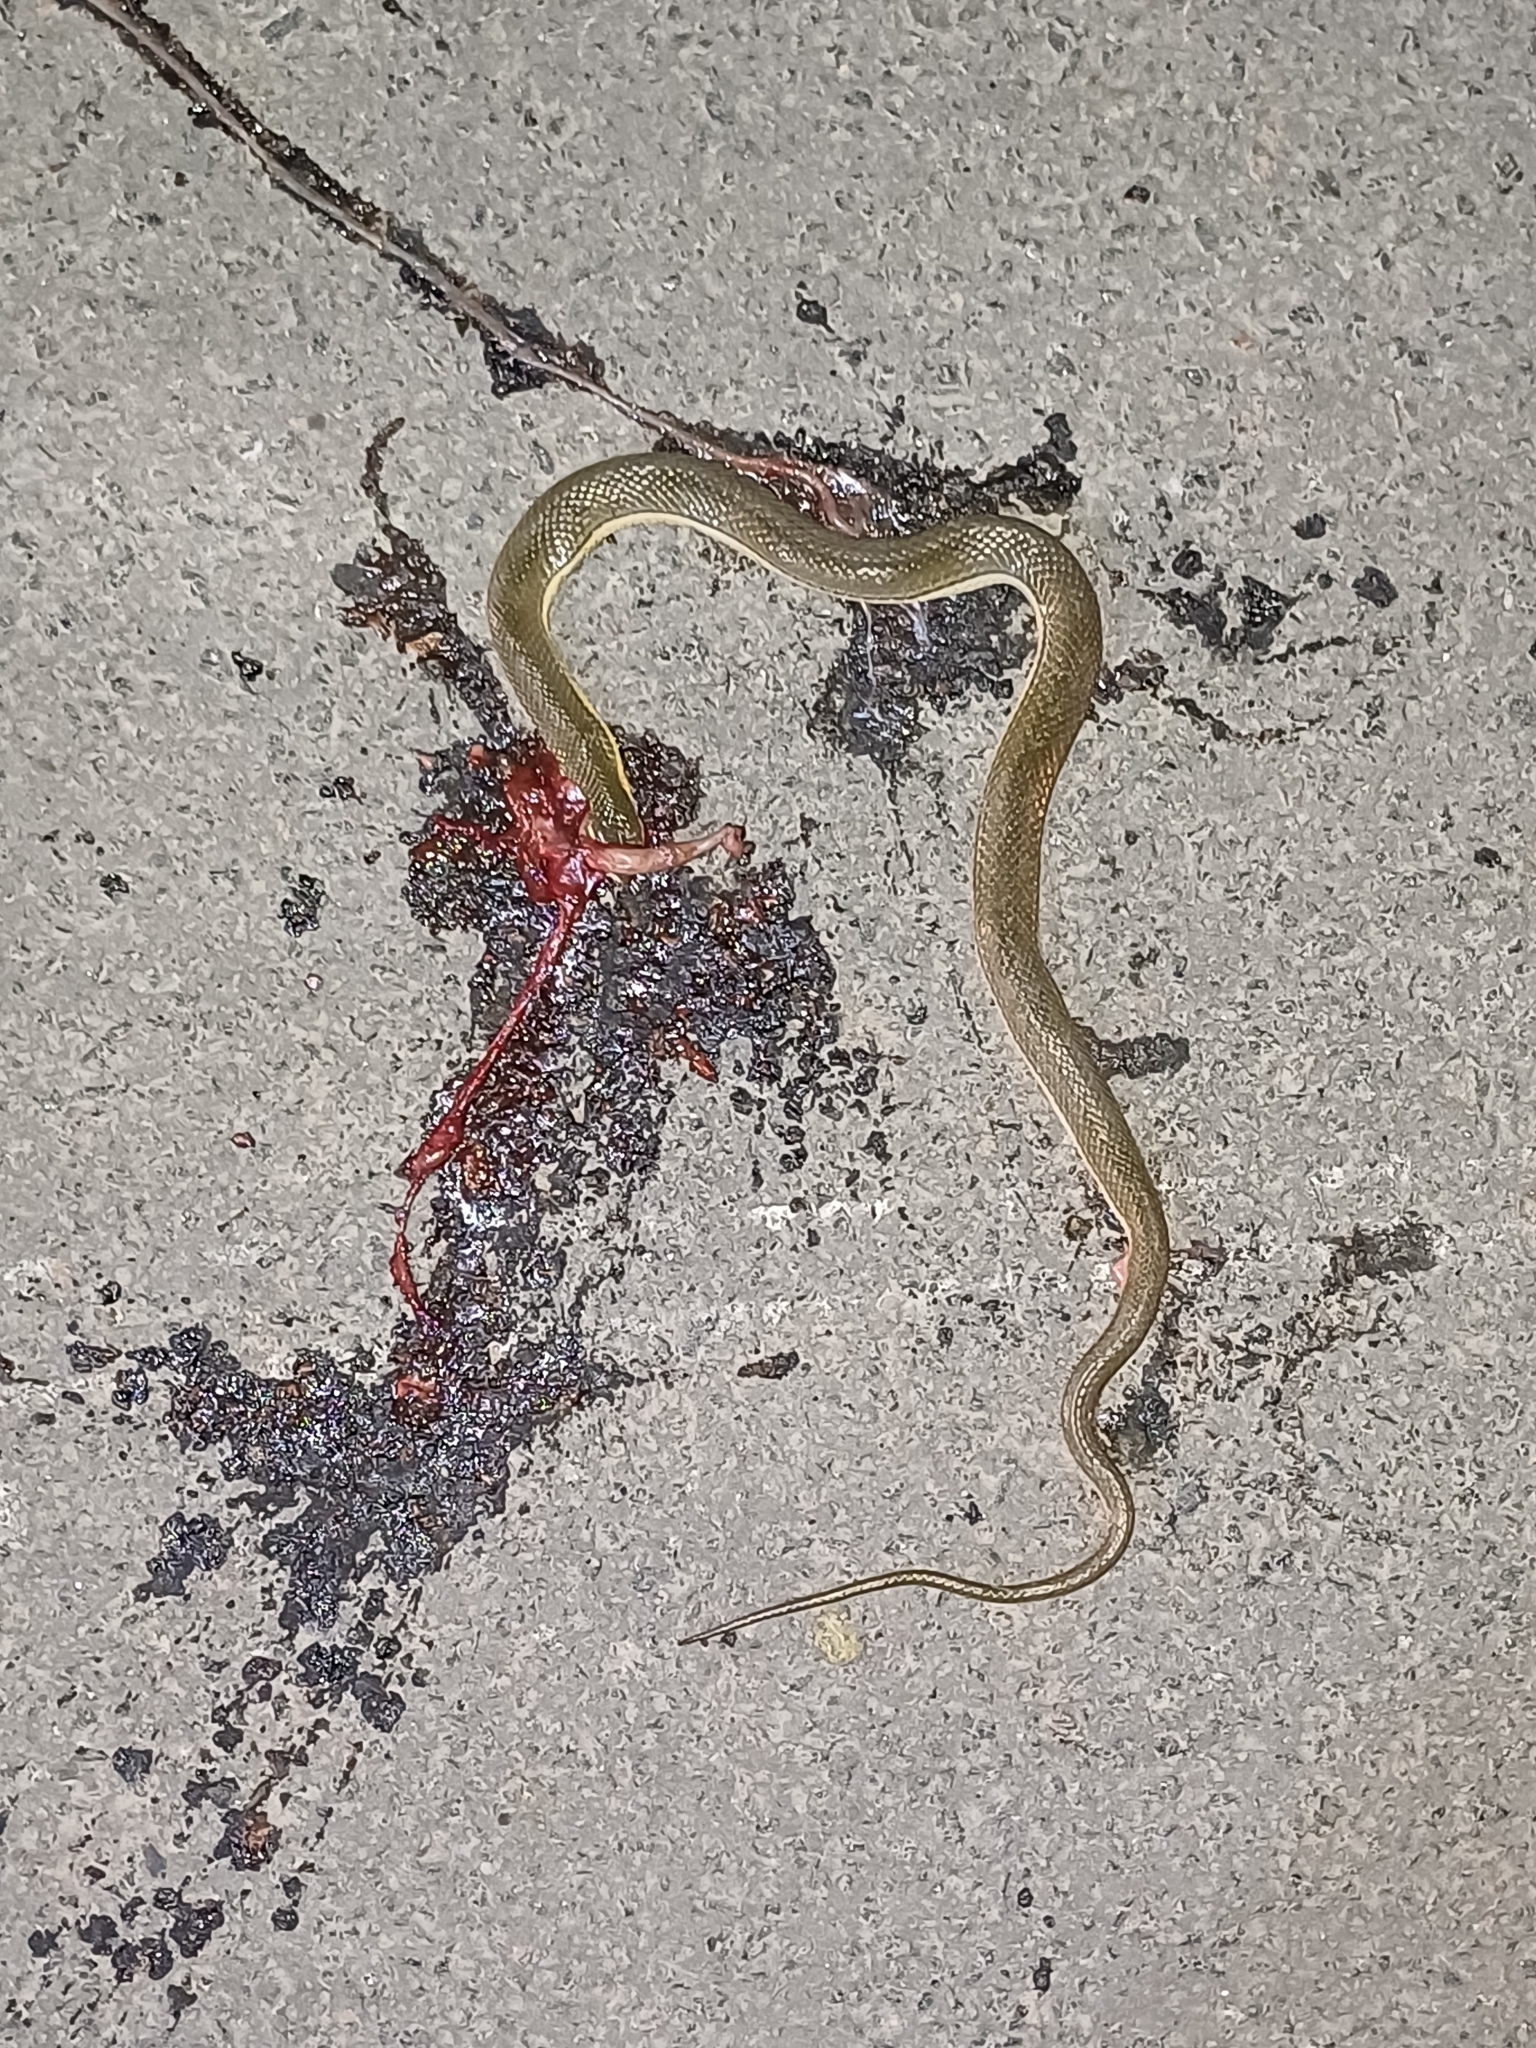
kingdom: Animalia
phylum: Chordata
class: Squamata
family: Colubridae
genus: Atretium
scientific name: Atretium schistosum
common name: Olive keelback wart snake
